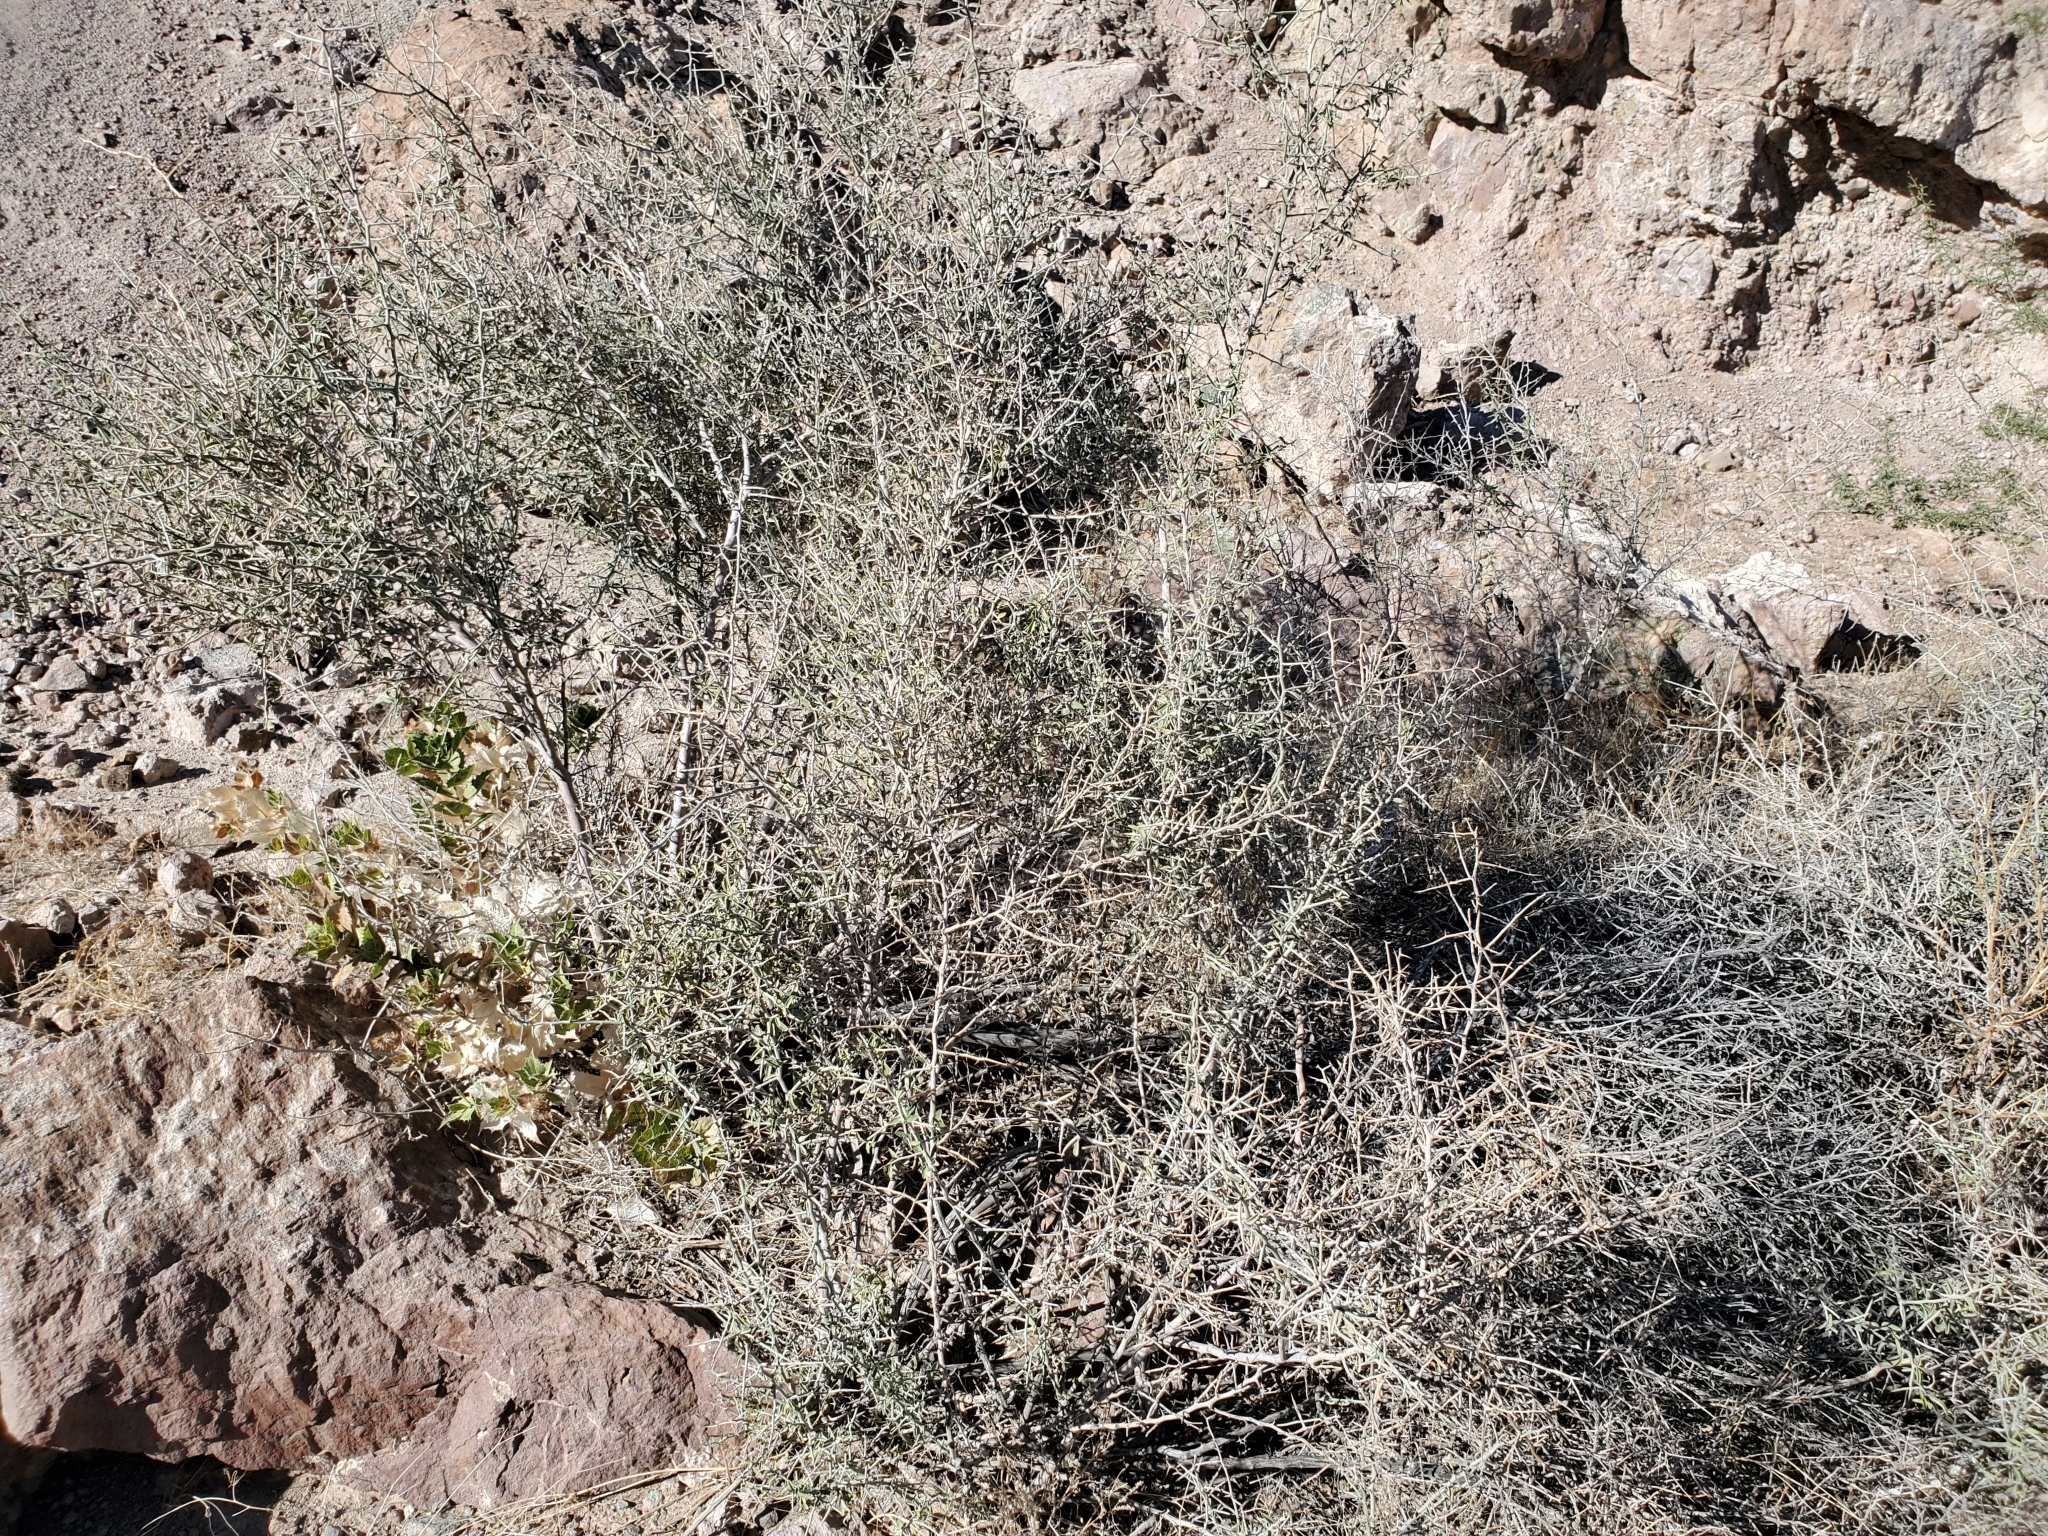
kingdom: Plantae
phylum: Tracheophyta
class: Magnoliopsida
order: Rosales
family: Rhamnaceae
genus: Sarcomphalus
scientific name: Sarcomphalus obtusifolius
